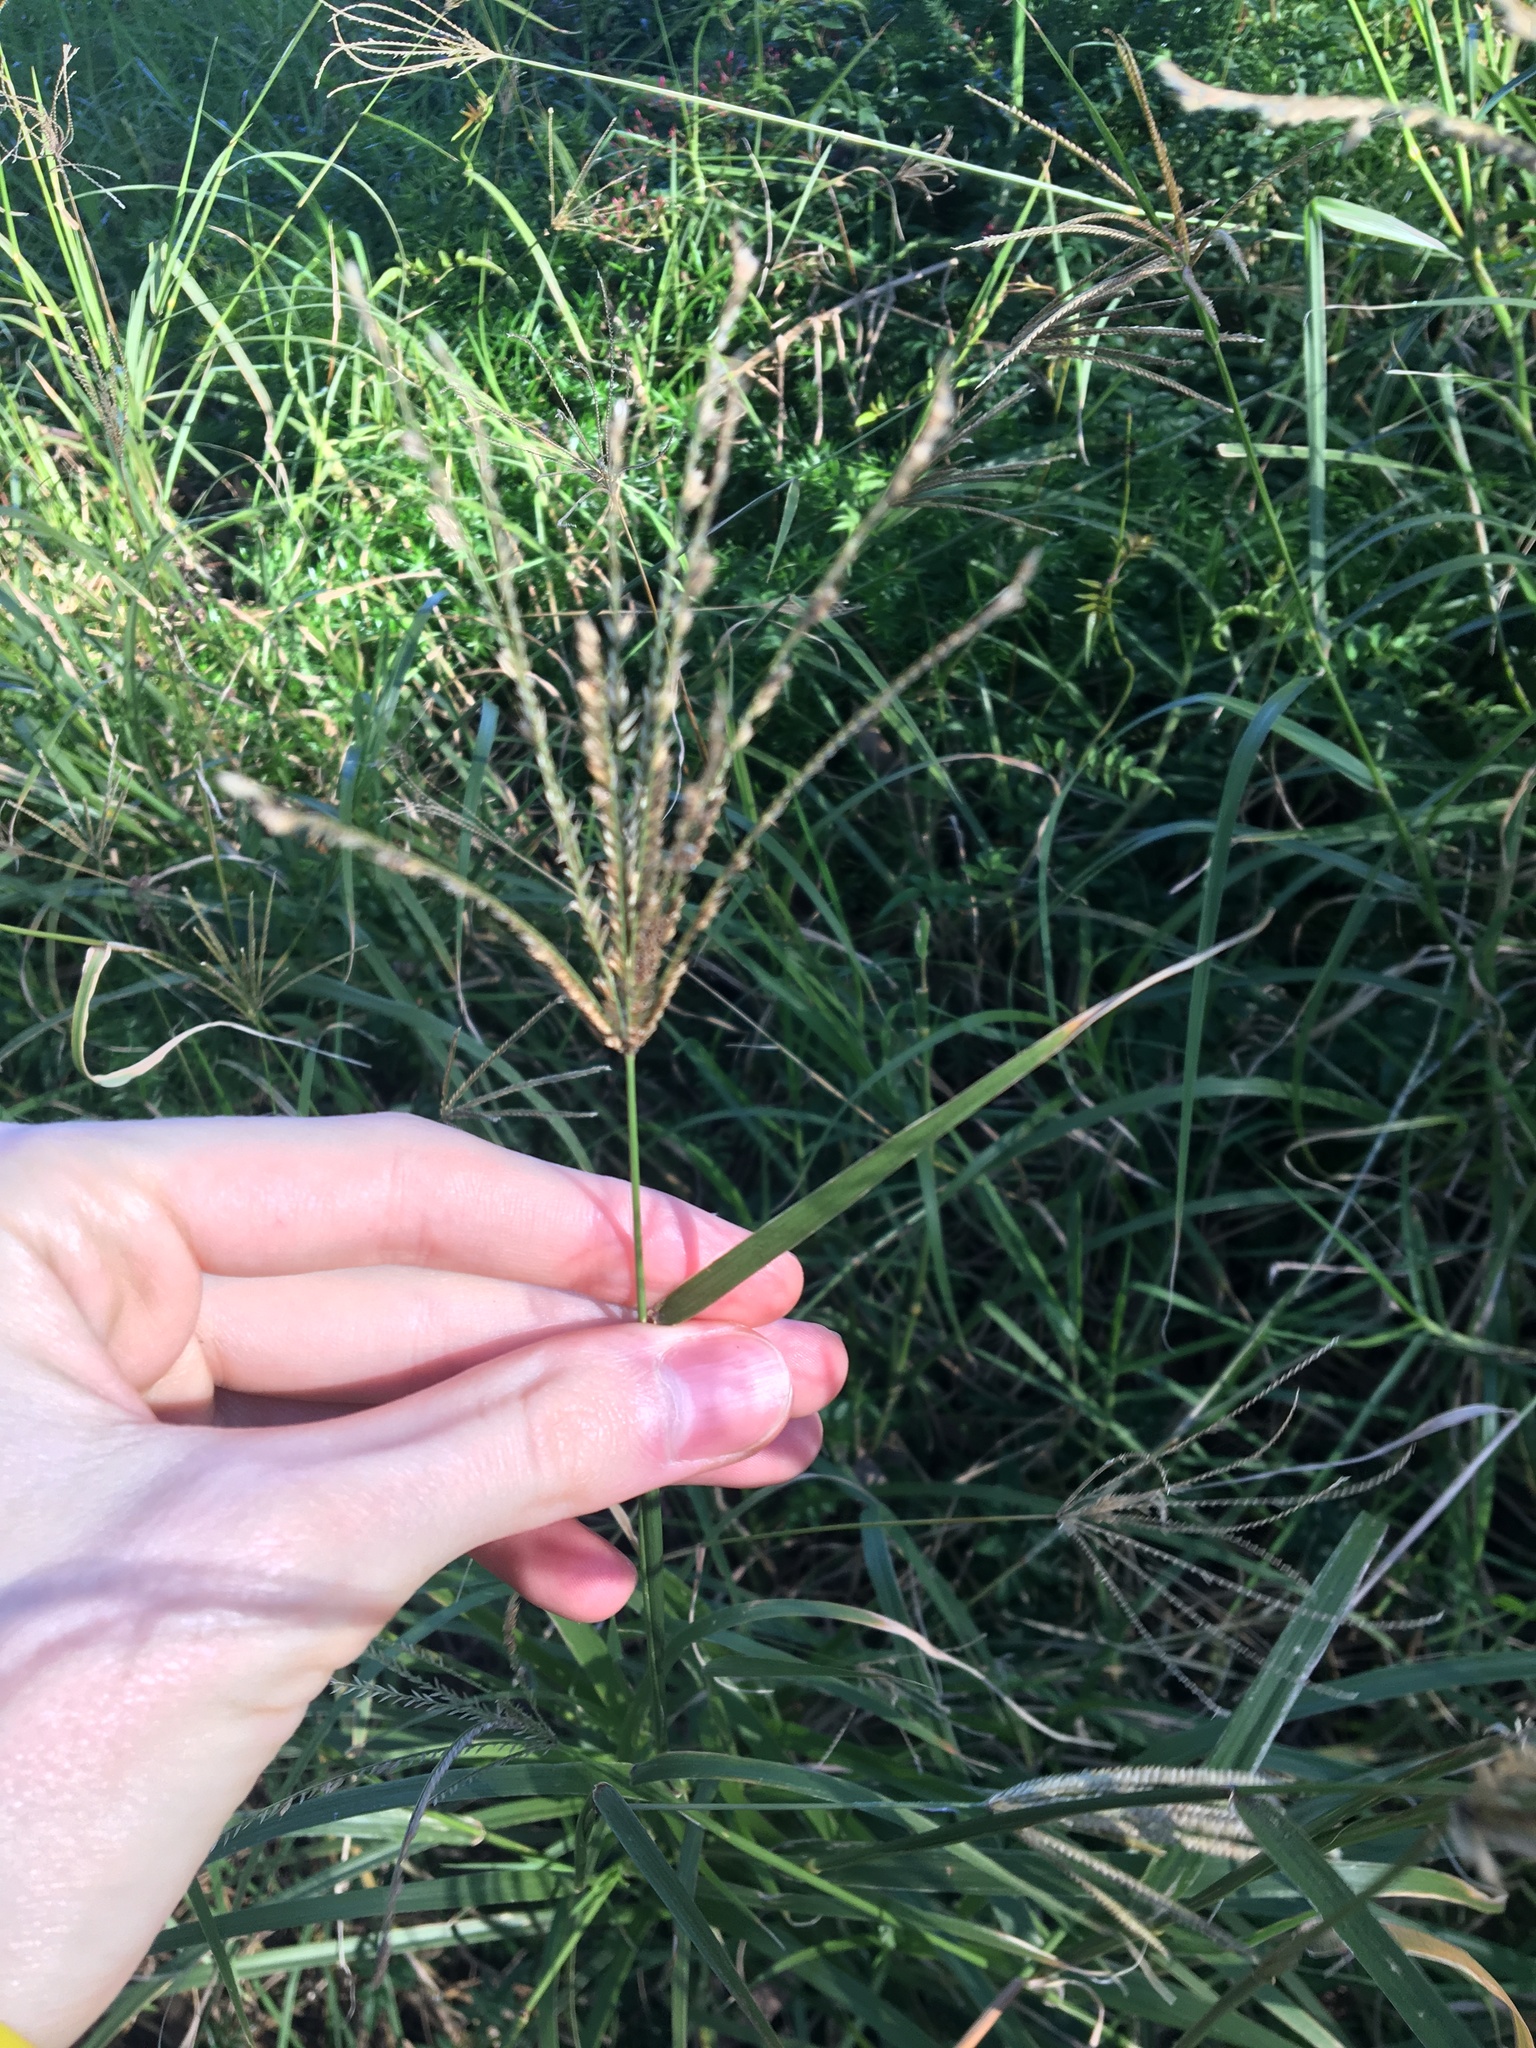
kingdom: Plantae
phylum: Tracheophyta
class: Liliopsida
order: Poales
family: Poaceae
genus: Chloris
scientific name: Chloris gayana
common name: Rhodes grass
